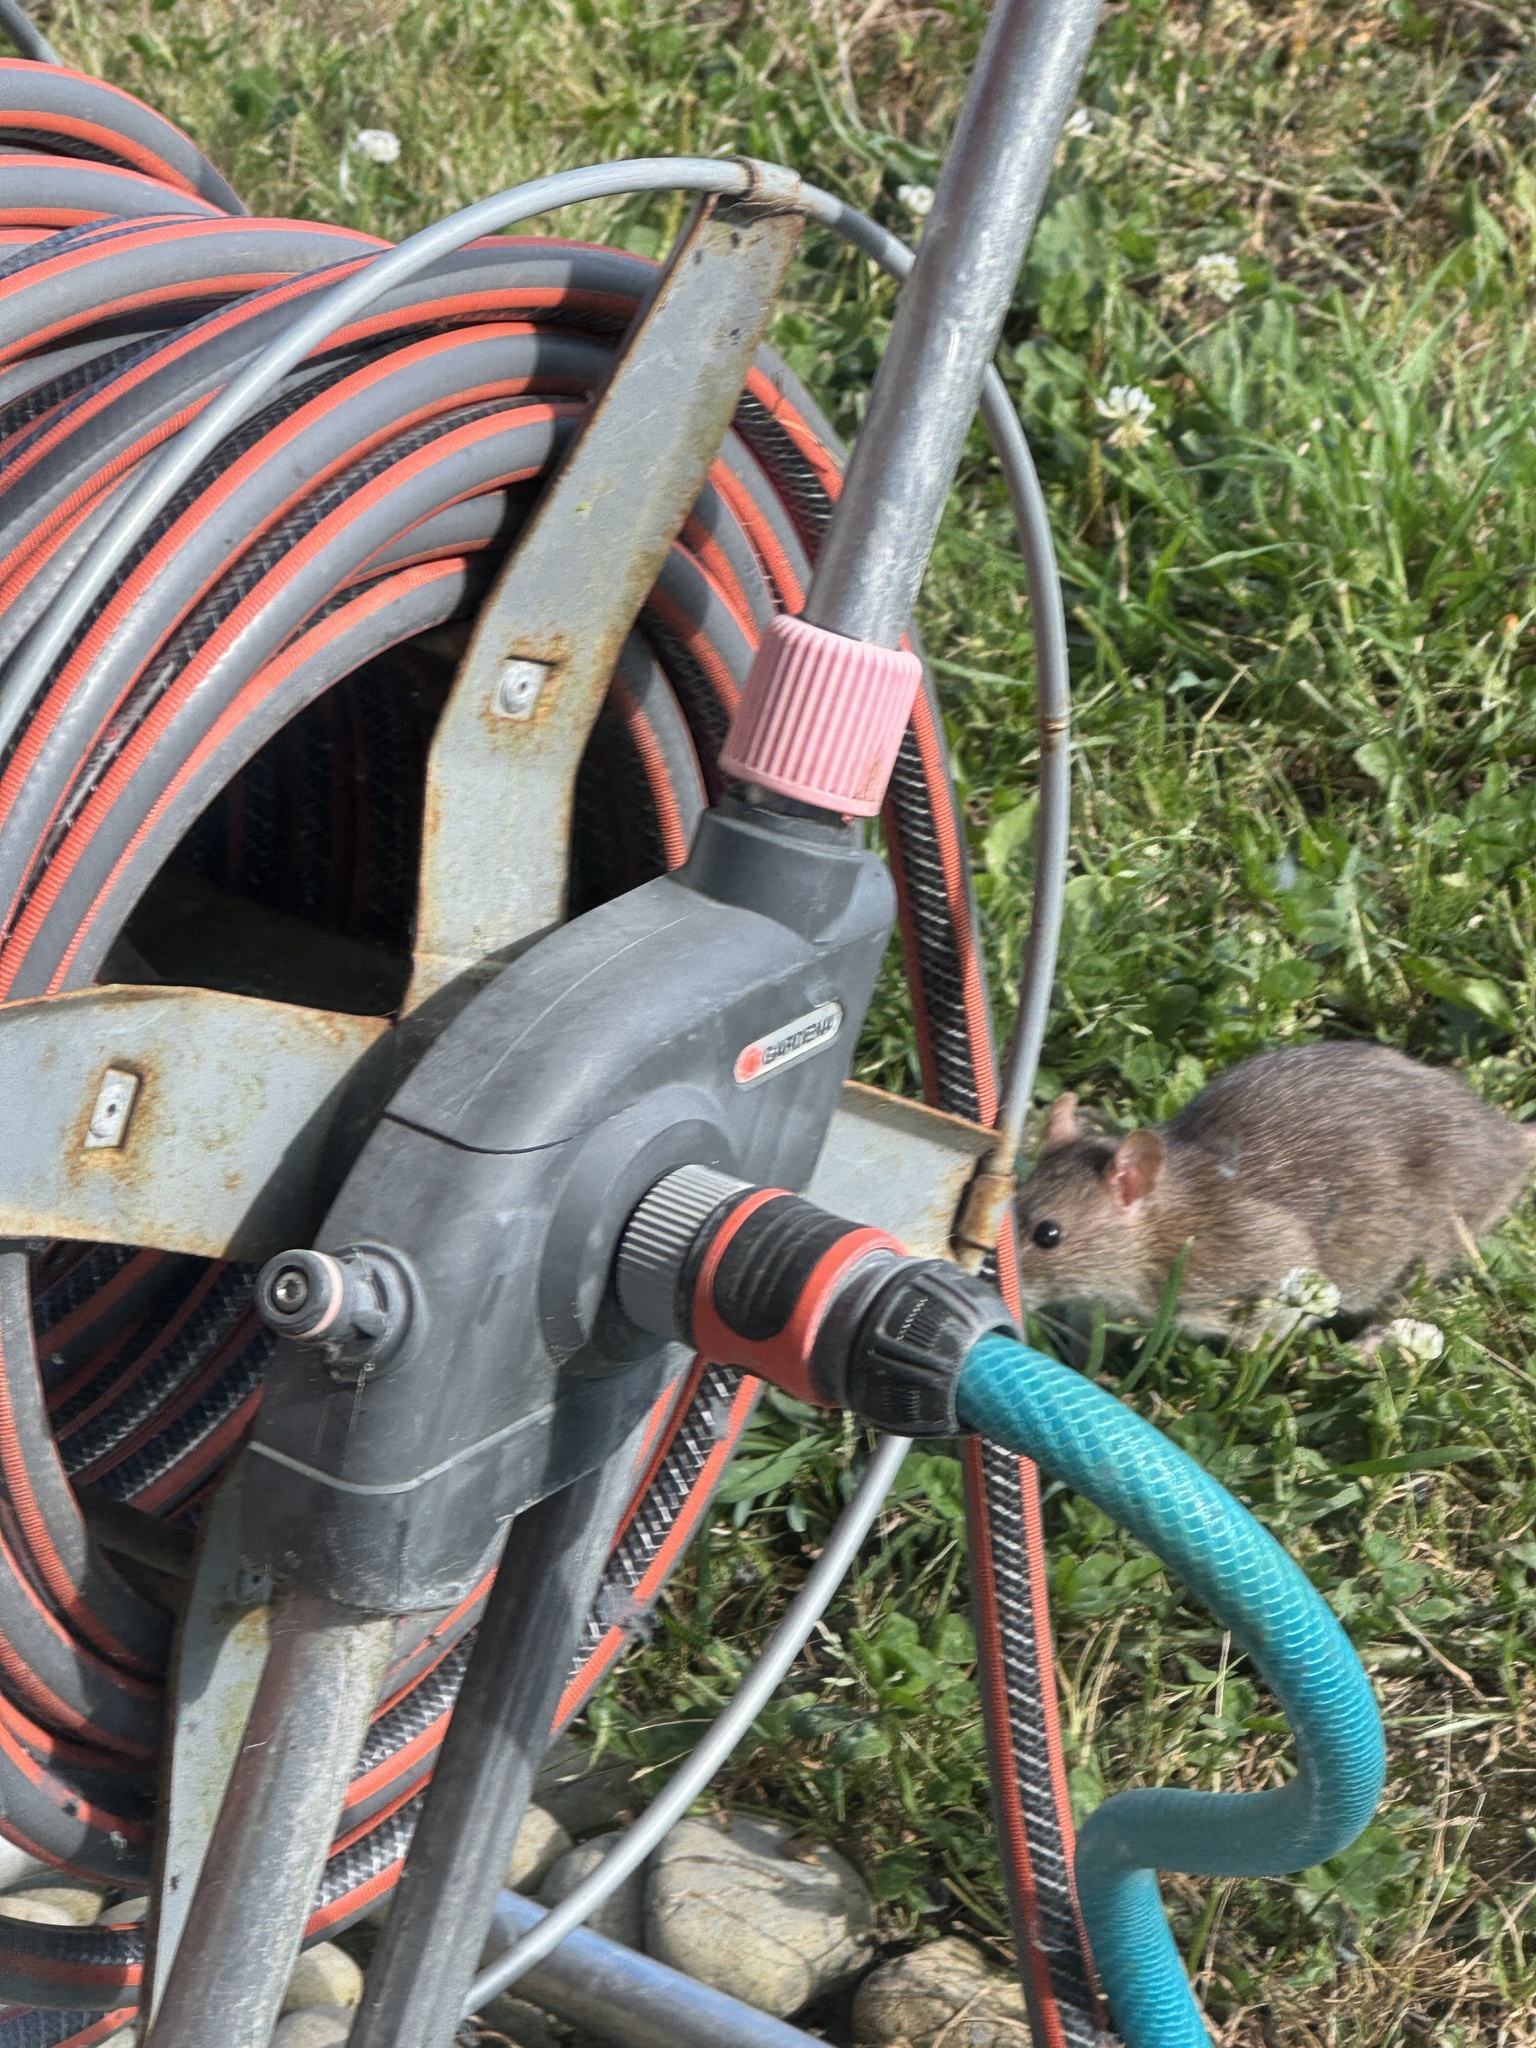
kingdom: Animalia
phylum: Chordata
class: Mammalia
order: Rodentia
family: Muridae
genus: Rattus
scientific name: Rattus norvegicus
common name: Brown rat
